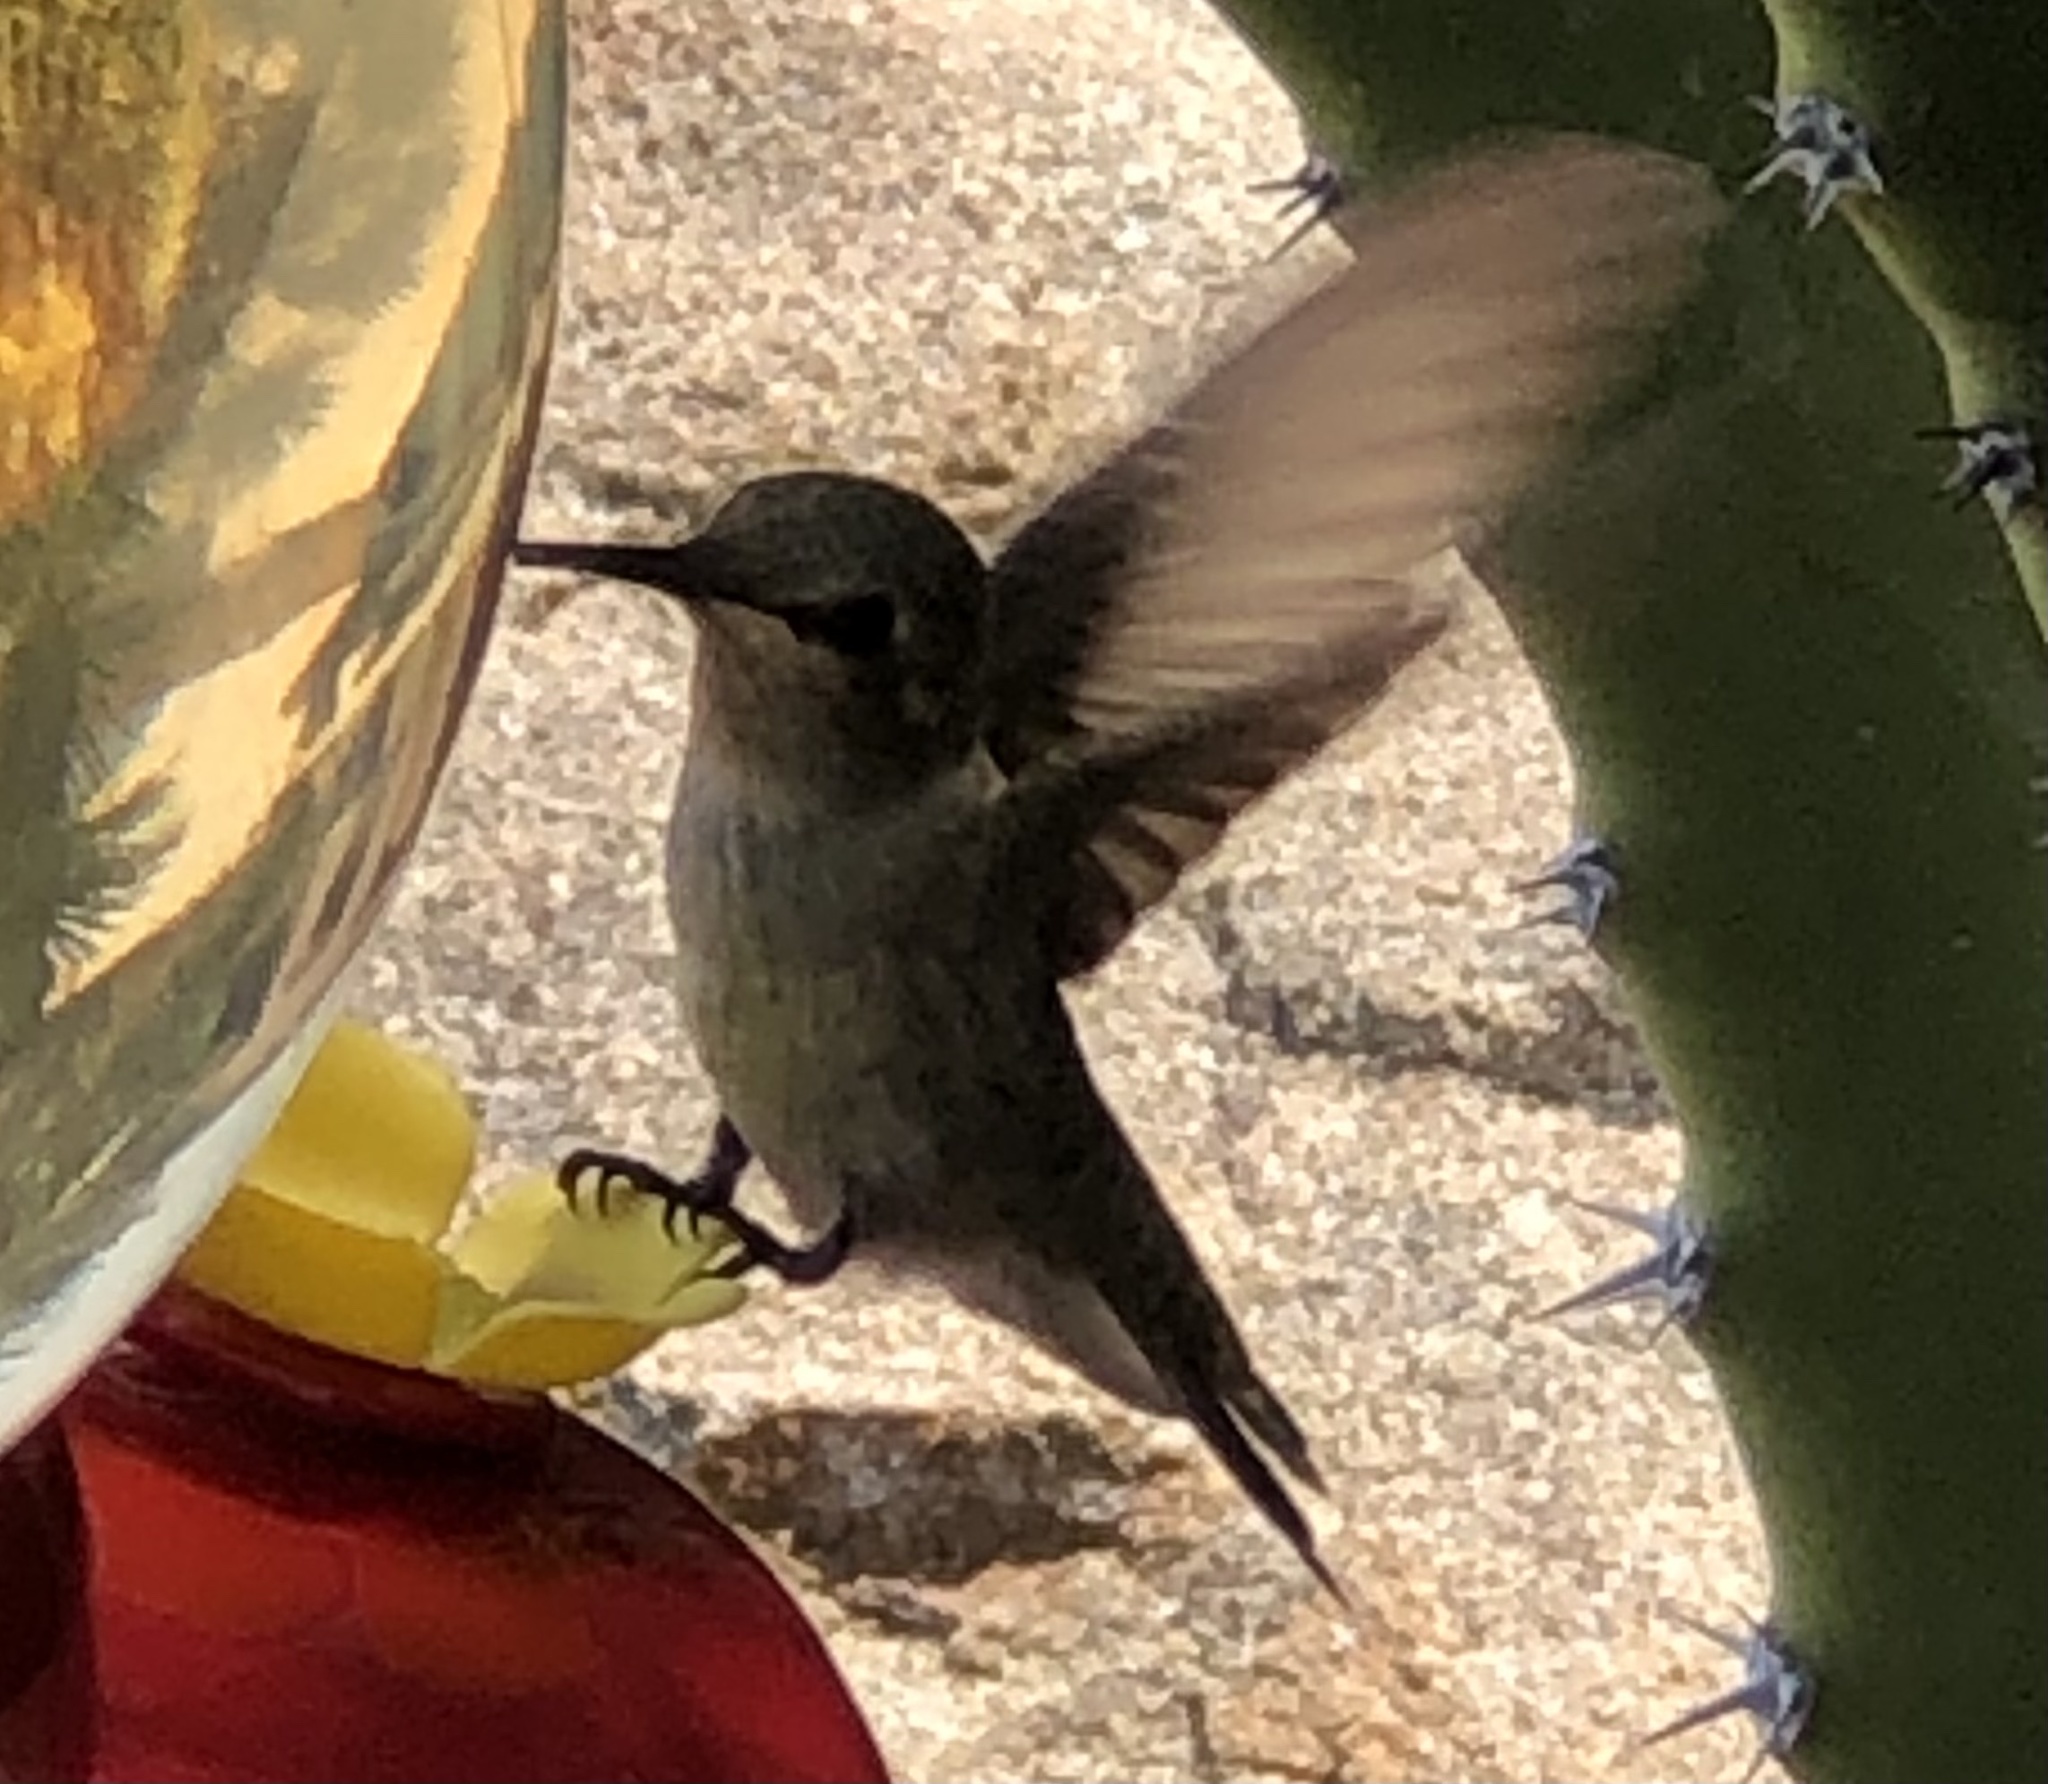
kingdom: Animalia
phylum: Chordata
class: Aves
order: Apodiformes
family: Trochilidae
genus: Calypte
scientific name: Calypte anna
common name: Anna's hummingbird
